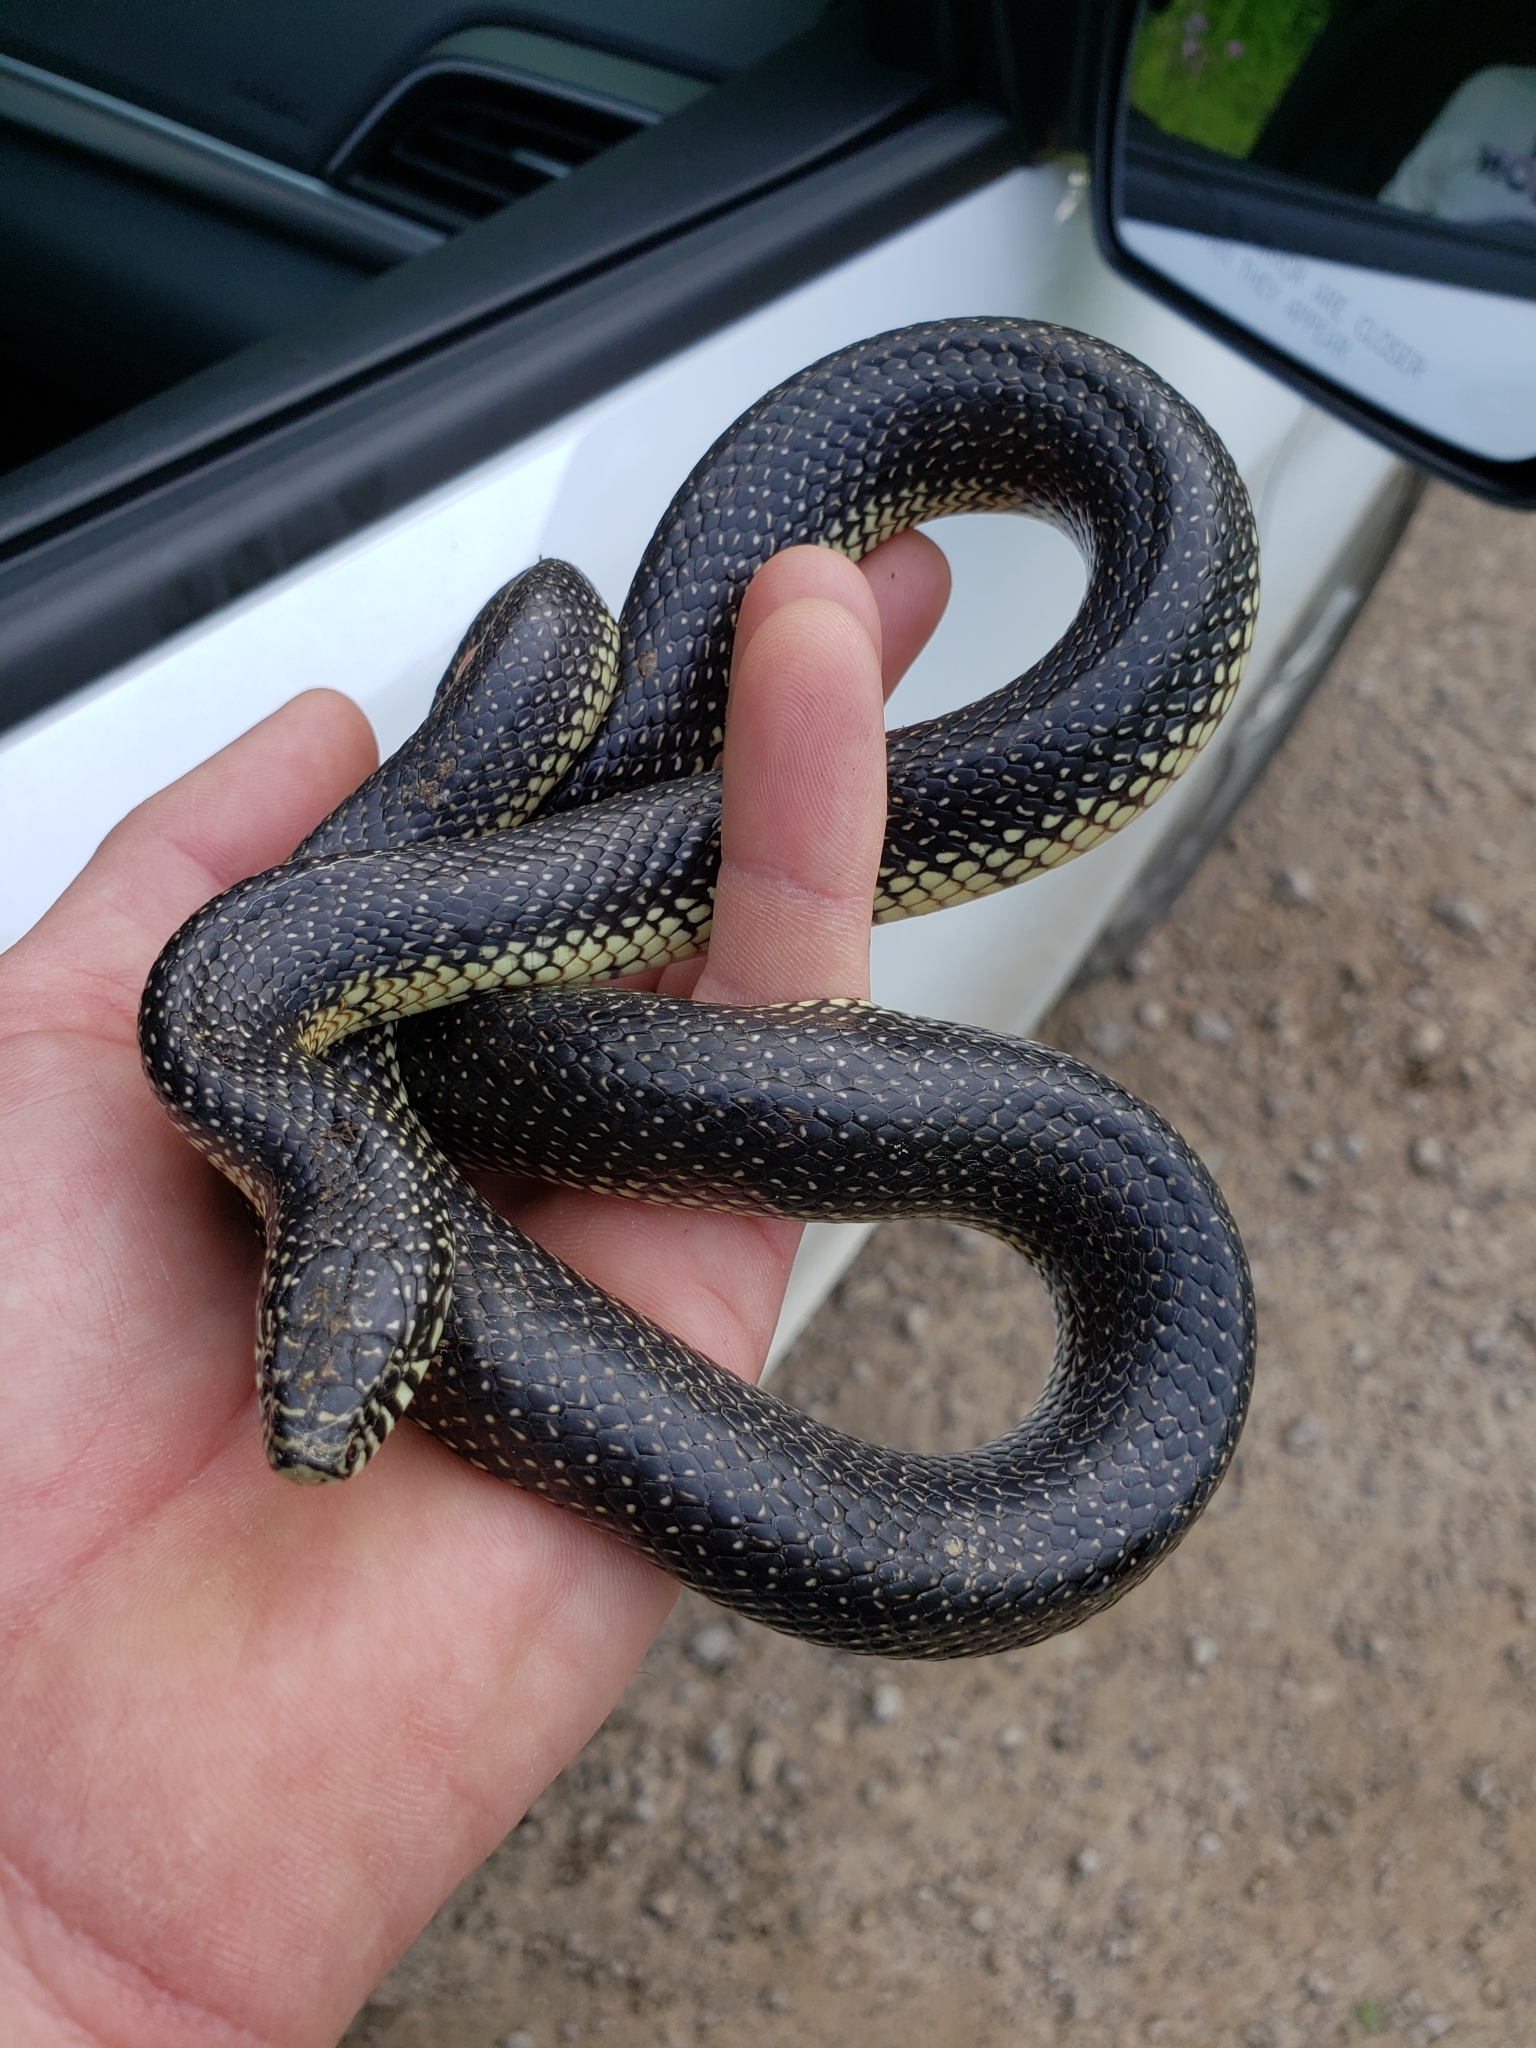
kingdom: Animalia
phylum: Chordata
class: Squamata
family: Colubridae
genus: Lampropeltis
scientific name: Lampropeltis holbrooki
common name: Speckled kingsnake
